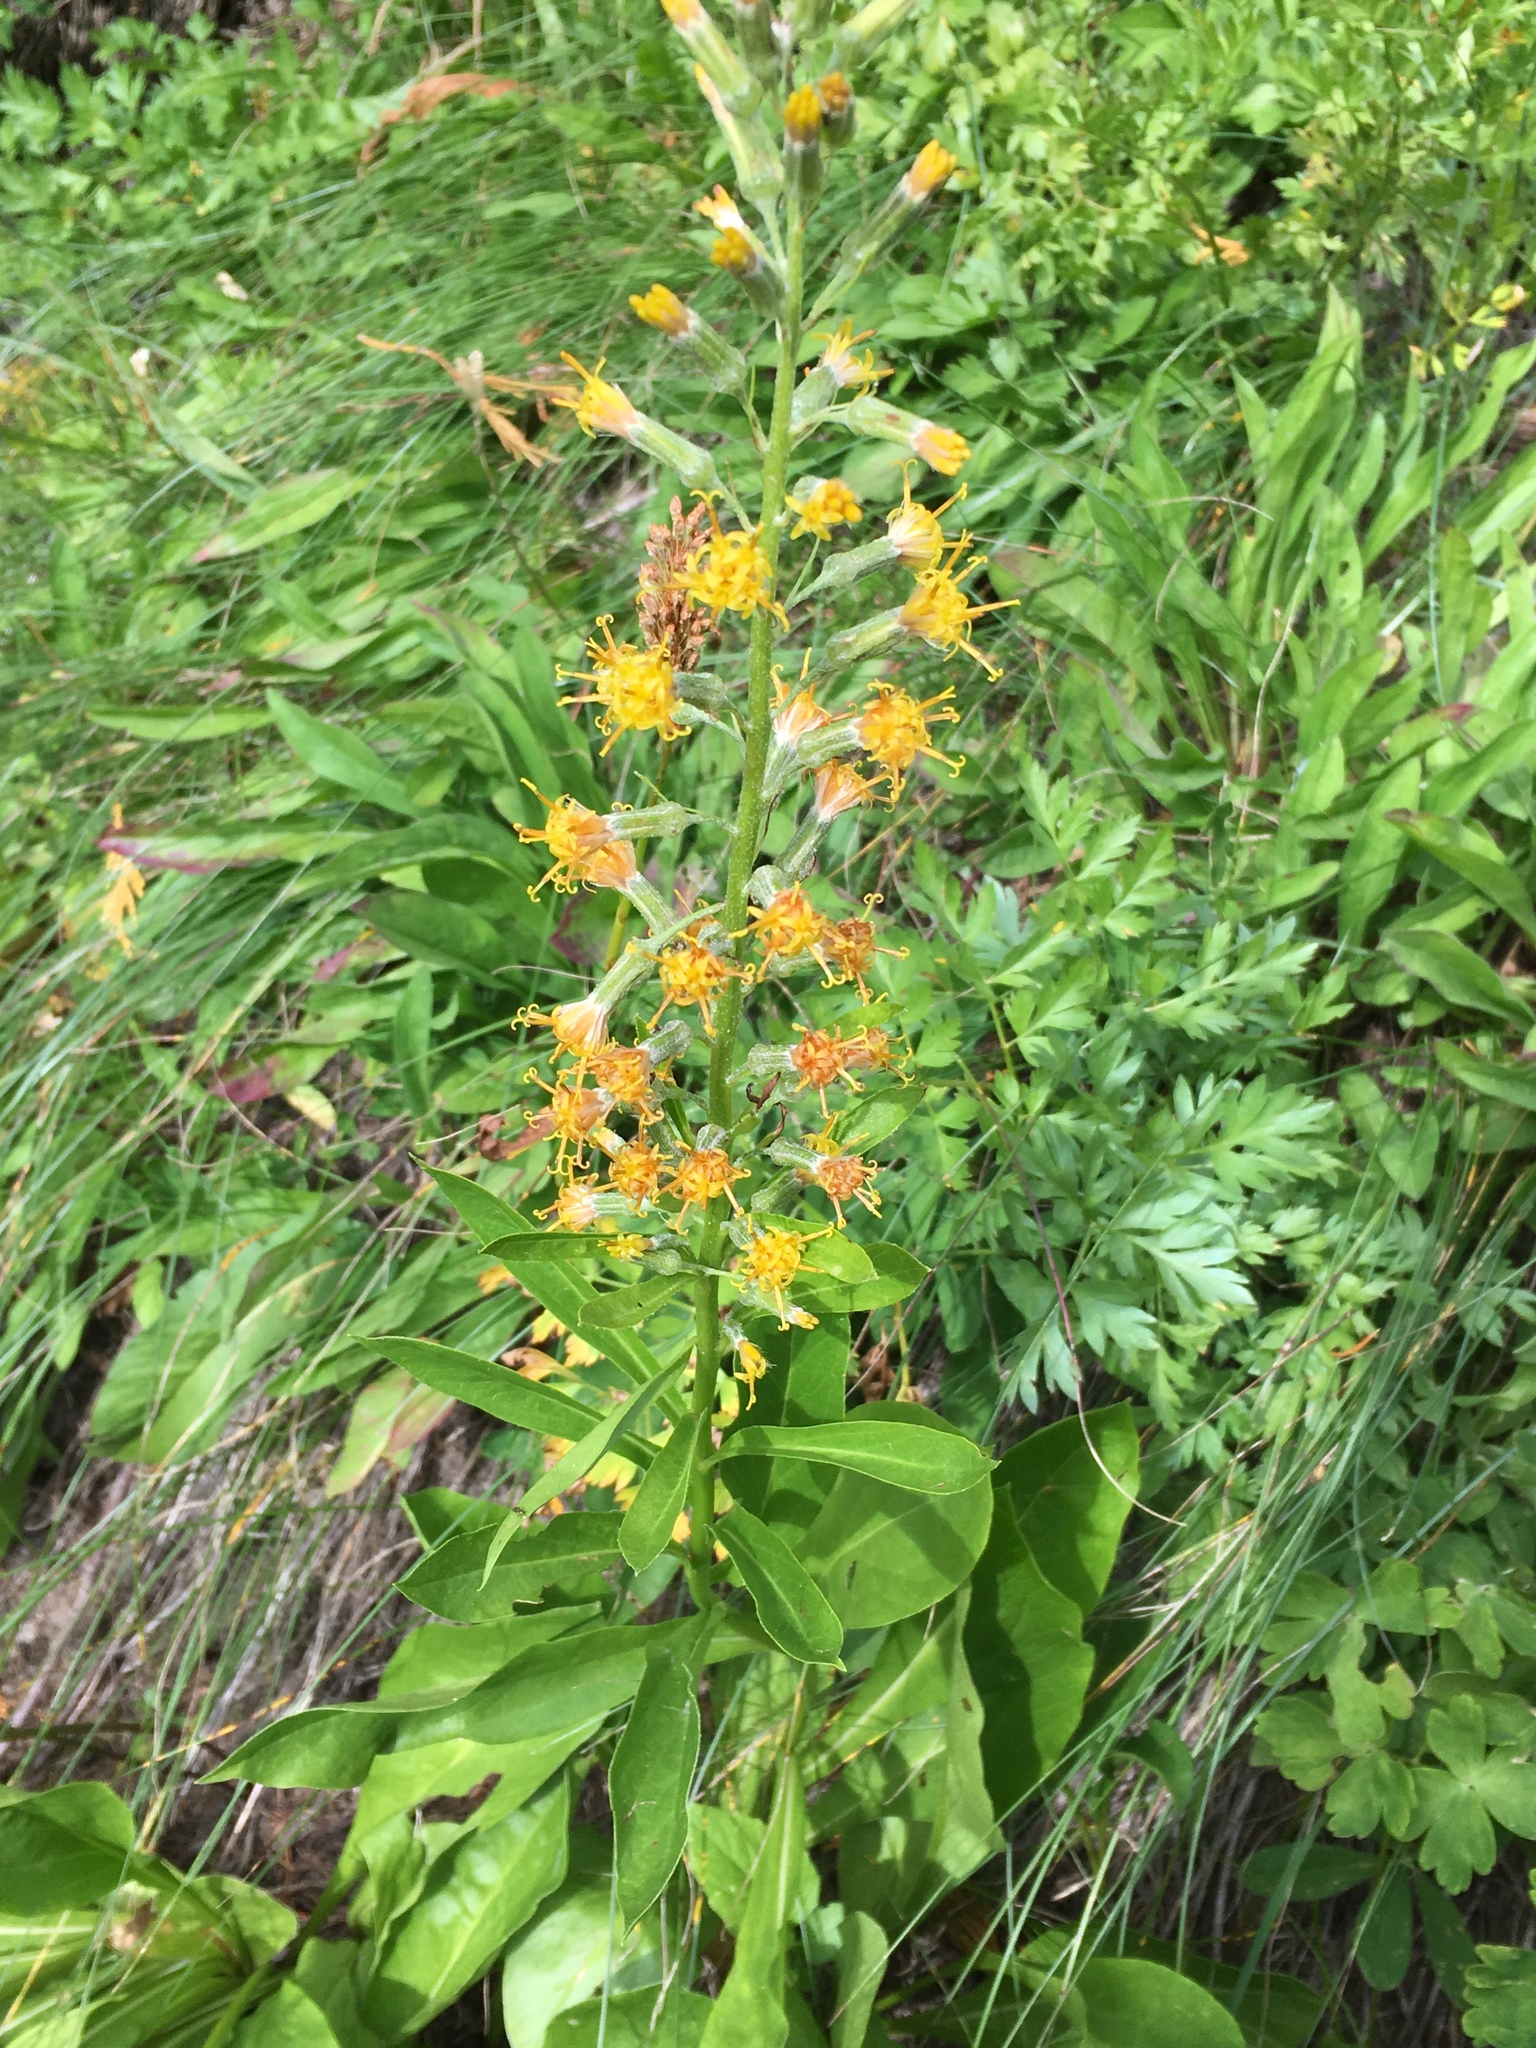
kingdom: Plantae
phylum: Tracheophyta
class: Magnoliopsida
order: Asterales
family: Asteraceae
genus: Rainiera
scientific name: Rainiera stricta
